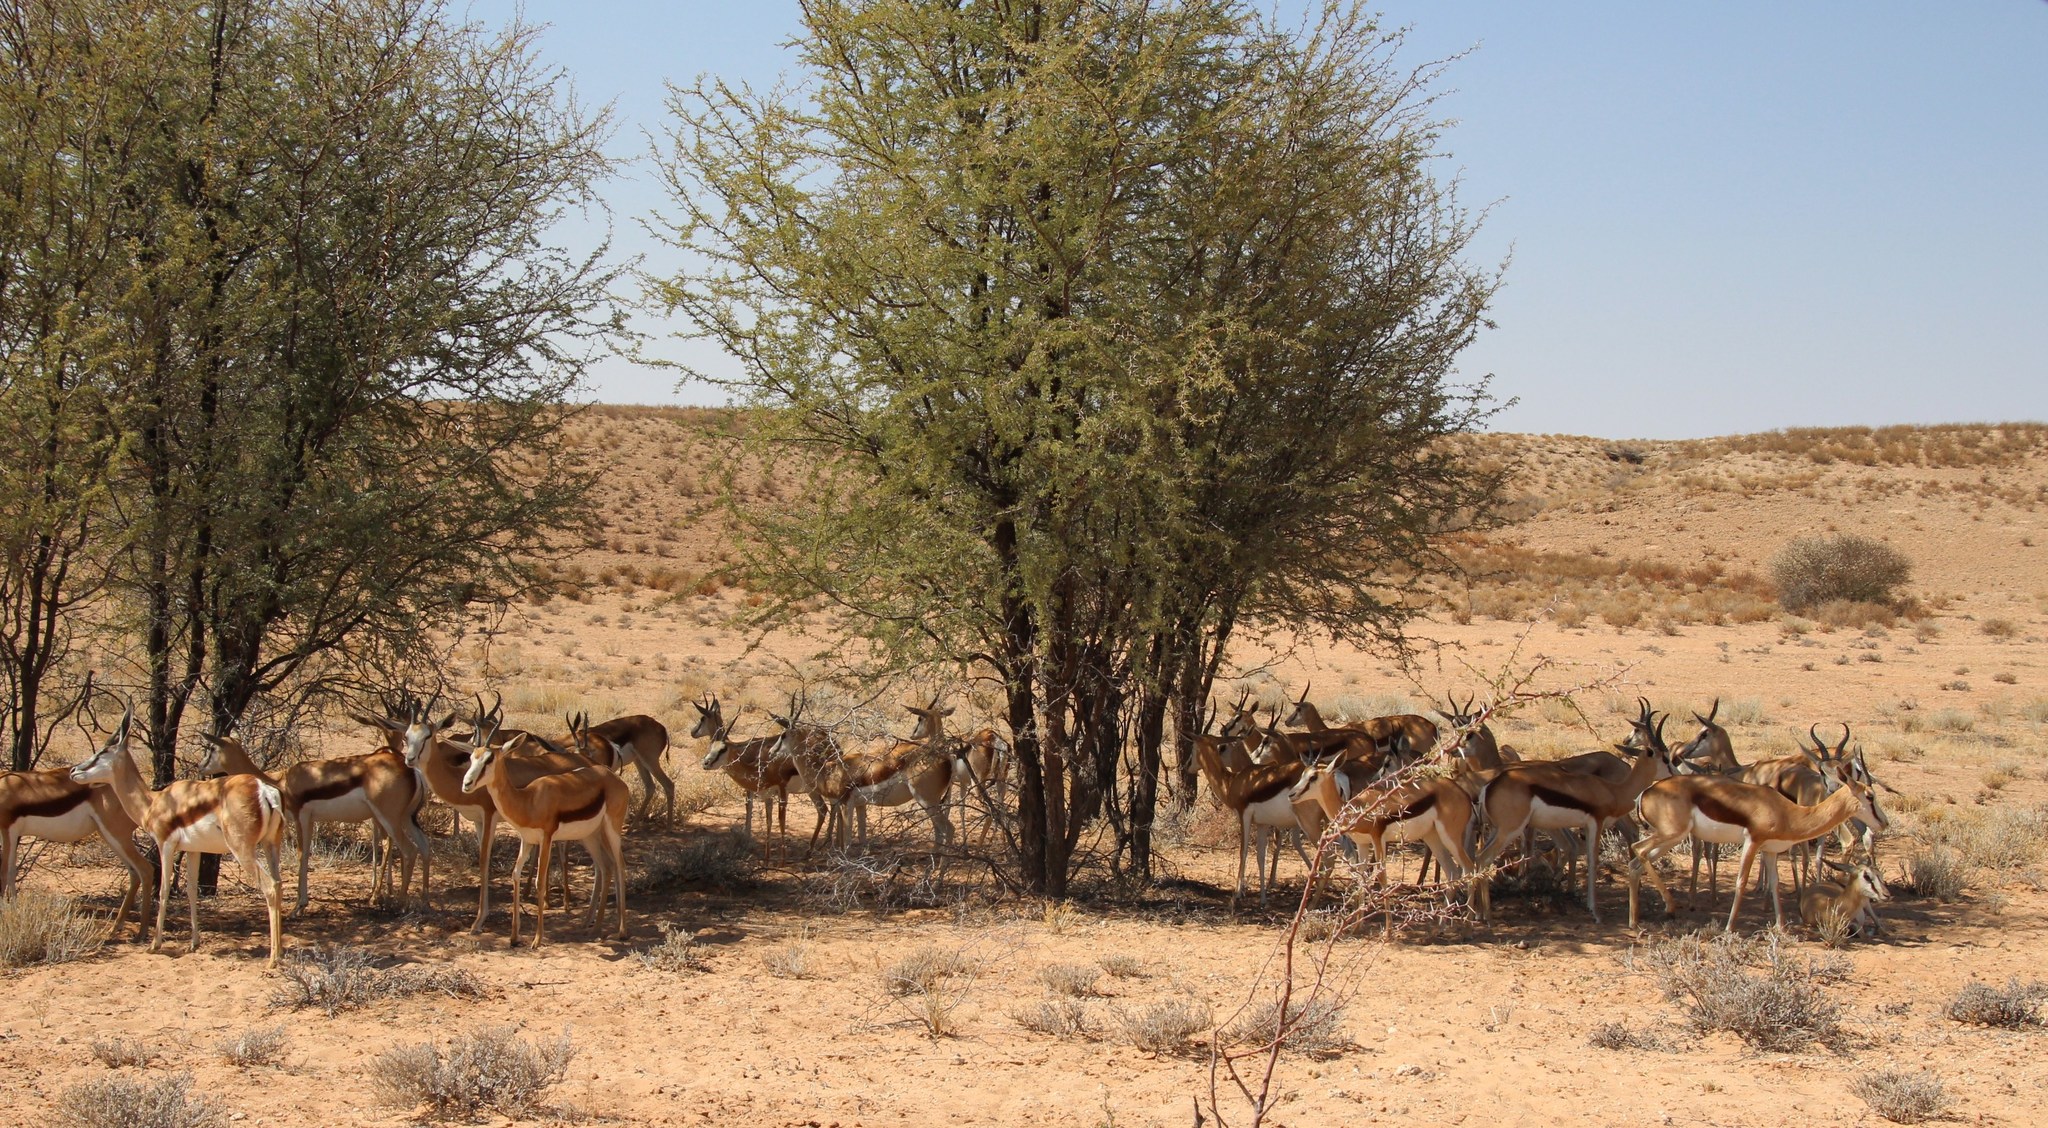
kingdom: Animalia
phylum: Chordata
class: Mammalia
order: Artiodactyla
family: Bovidae
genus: Antidorcas
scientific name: Antidorcas marsupialis
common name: Springbok
